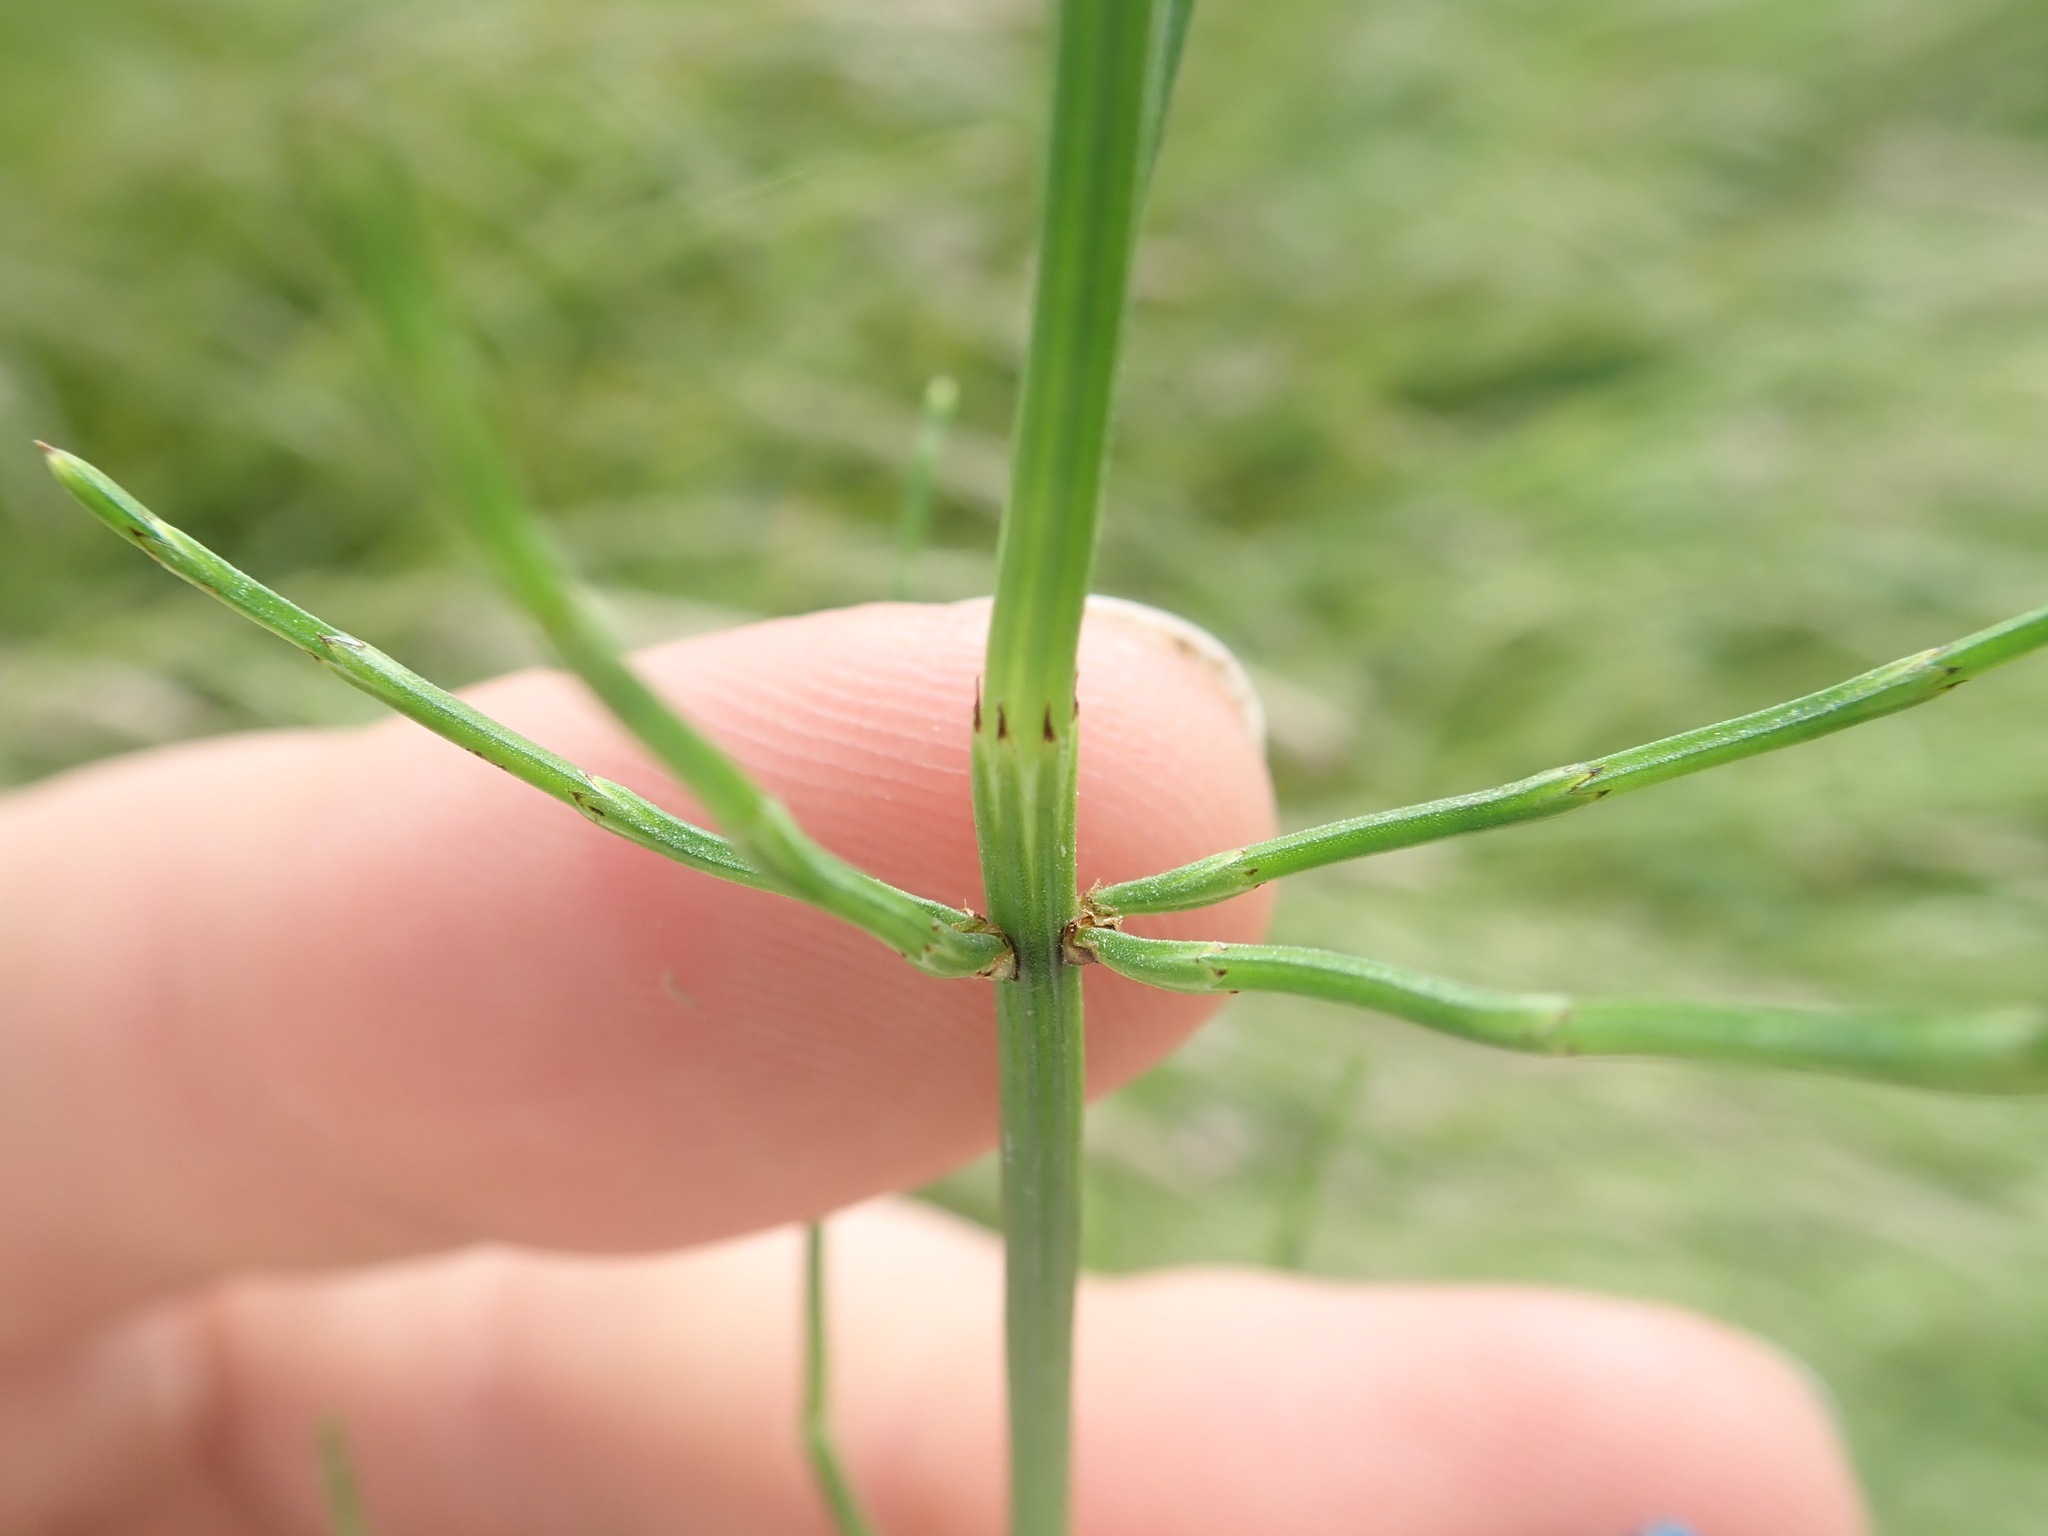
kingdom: Plantae
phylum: Tracheophyta
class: Polypodiopsida
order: Equisetales
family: Equisetaceae
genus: Equisetum
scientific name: Equisetum palustre
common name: Marsh horsetail
